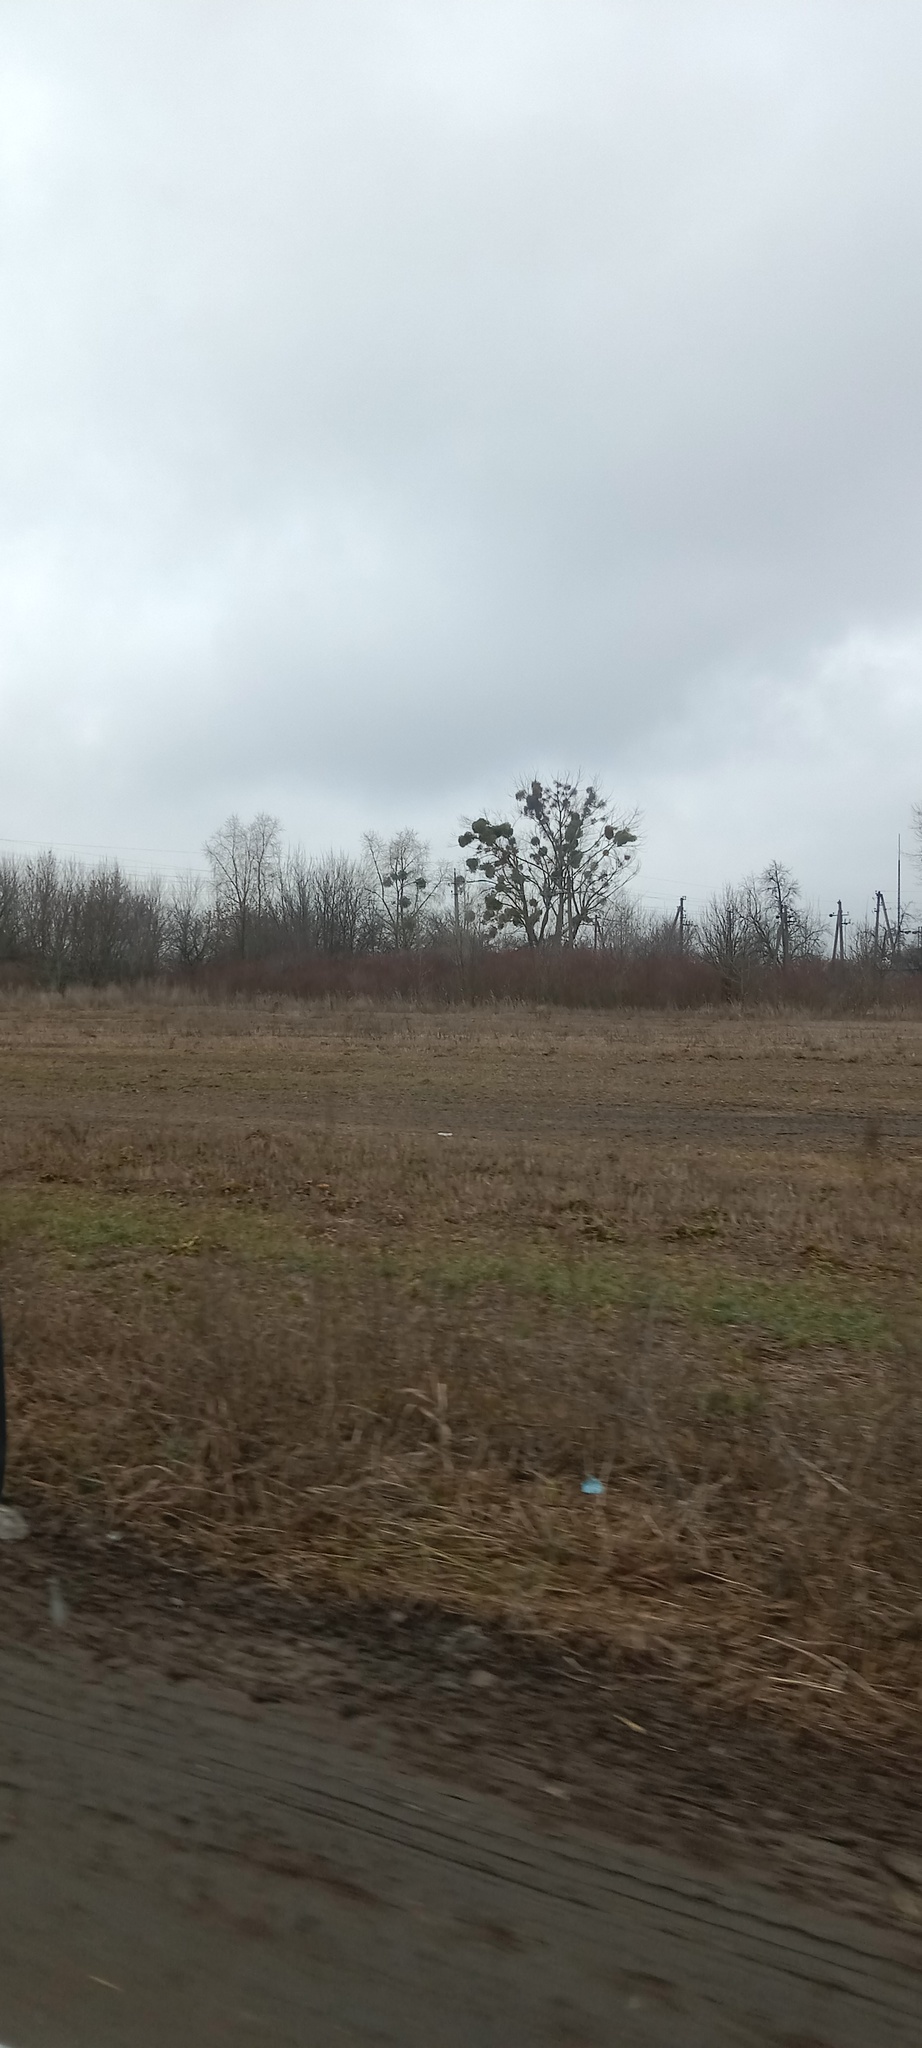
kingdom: Plantae
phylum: Tracheophyta
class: Magnoliopsida
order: Santalales
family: Viscaceae
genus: Viscum
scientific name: Viscum album
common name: Mistletoe
